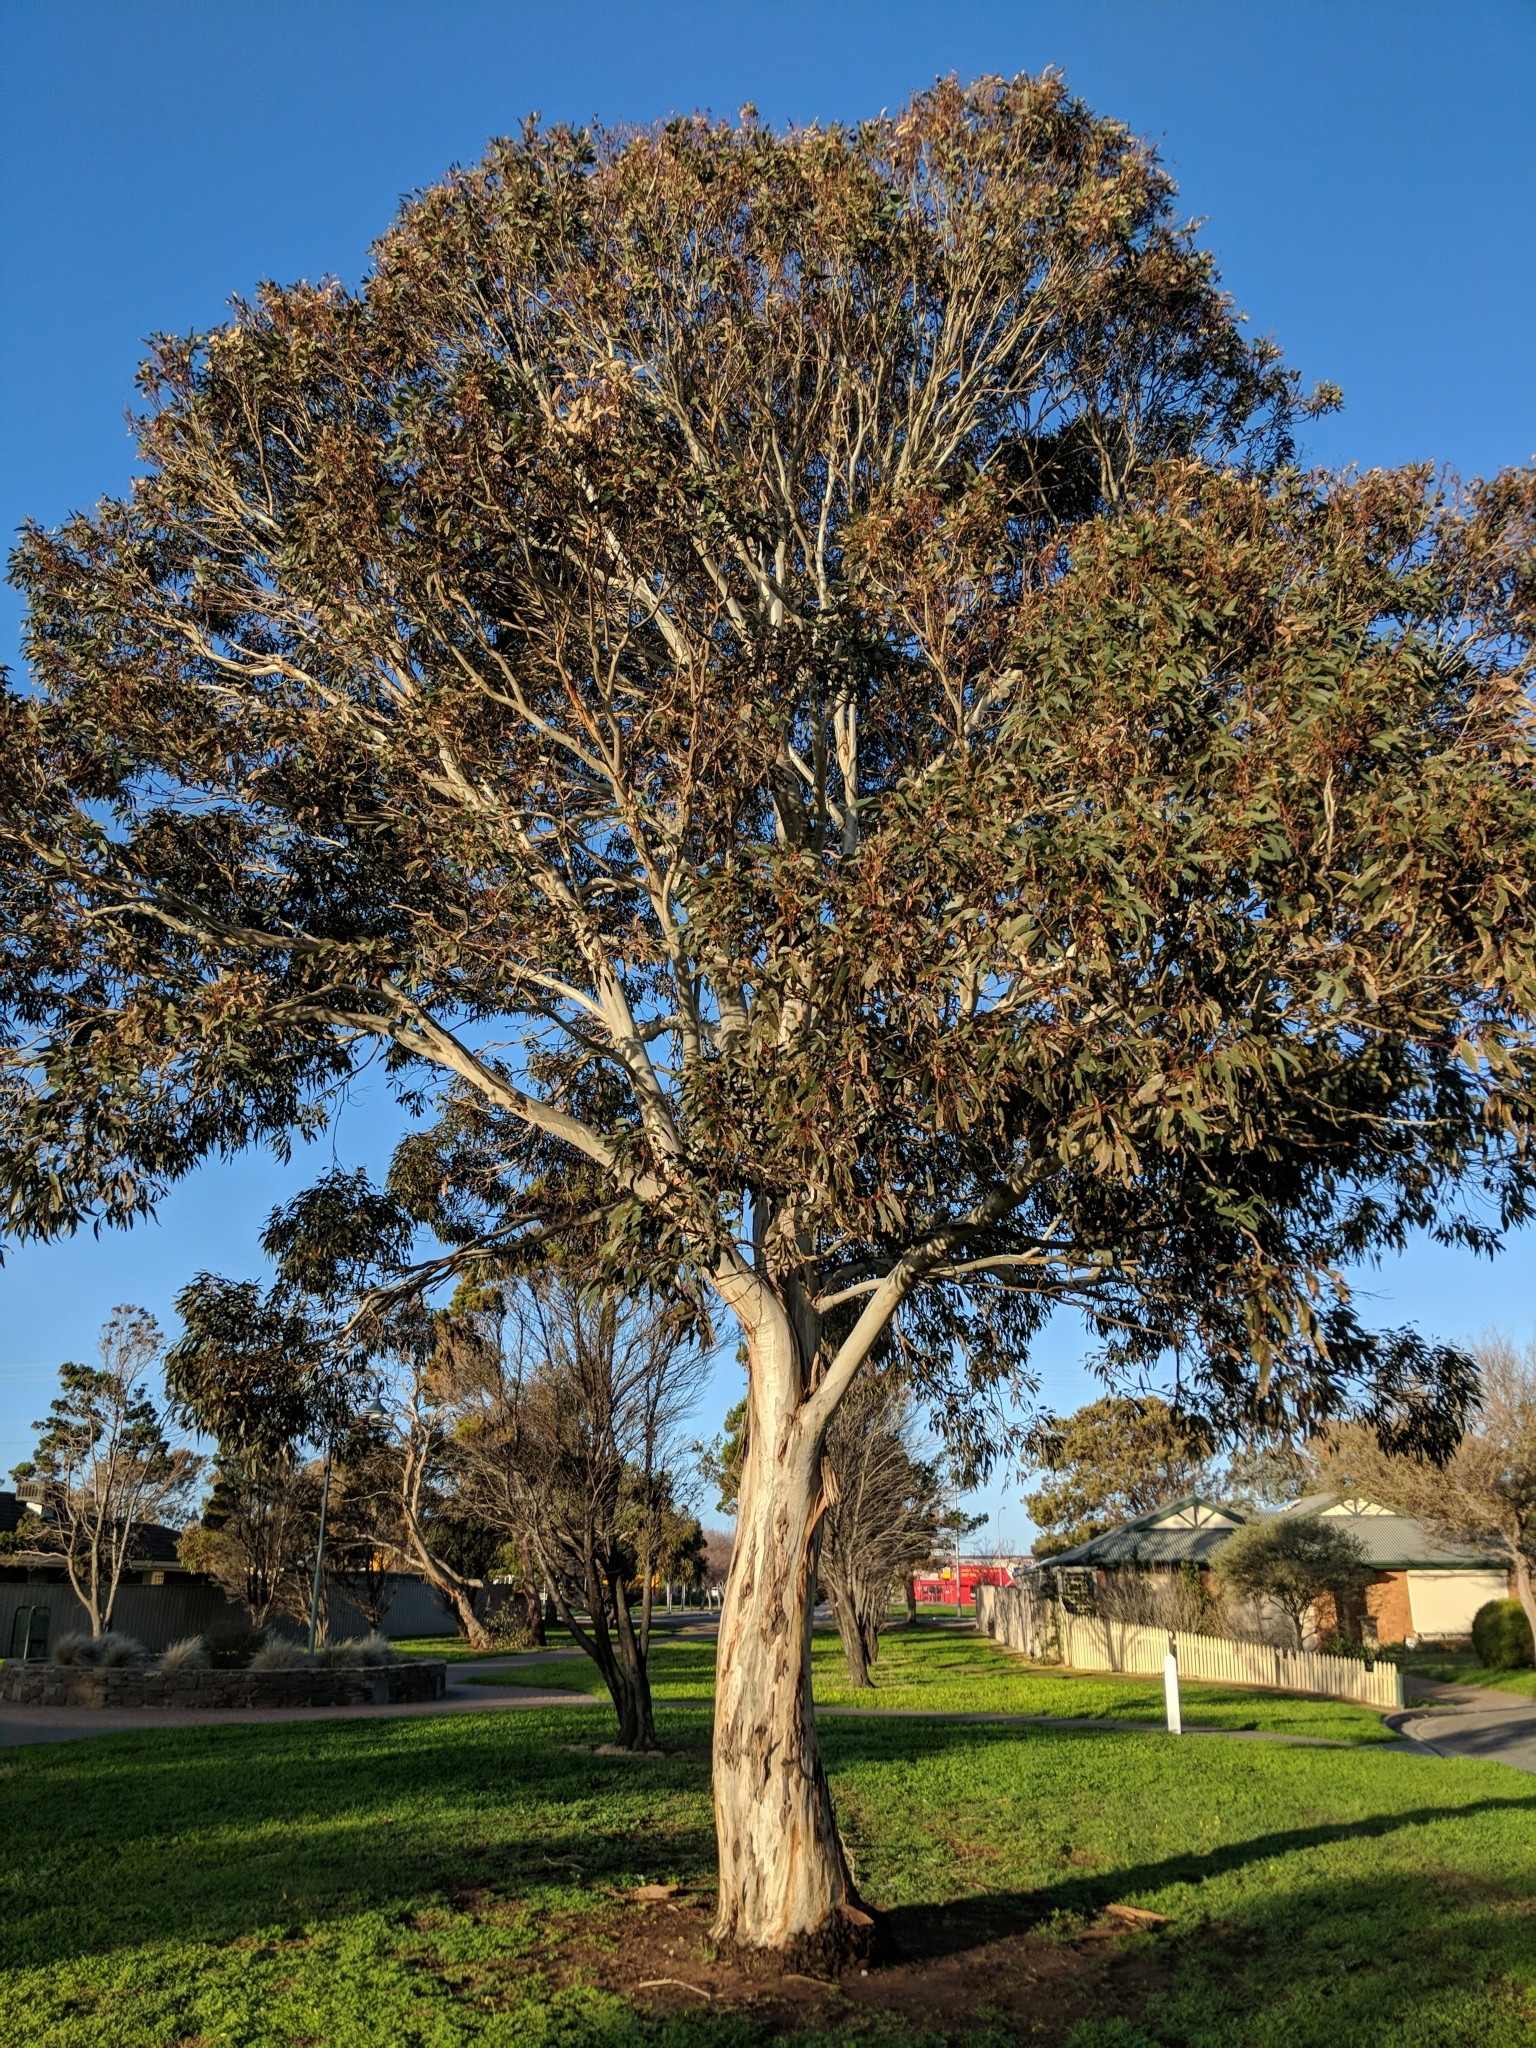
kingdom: Plantae
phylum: Tracheophyta
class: Magnoliopsida
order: Myrtales
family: Myrtaceae
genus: Eucalyptus
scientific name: Eucalyptus leucoxylon
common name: Blue gum
